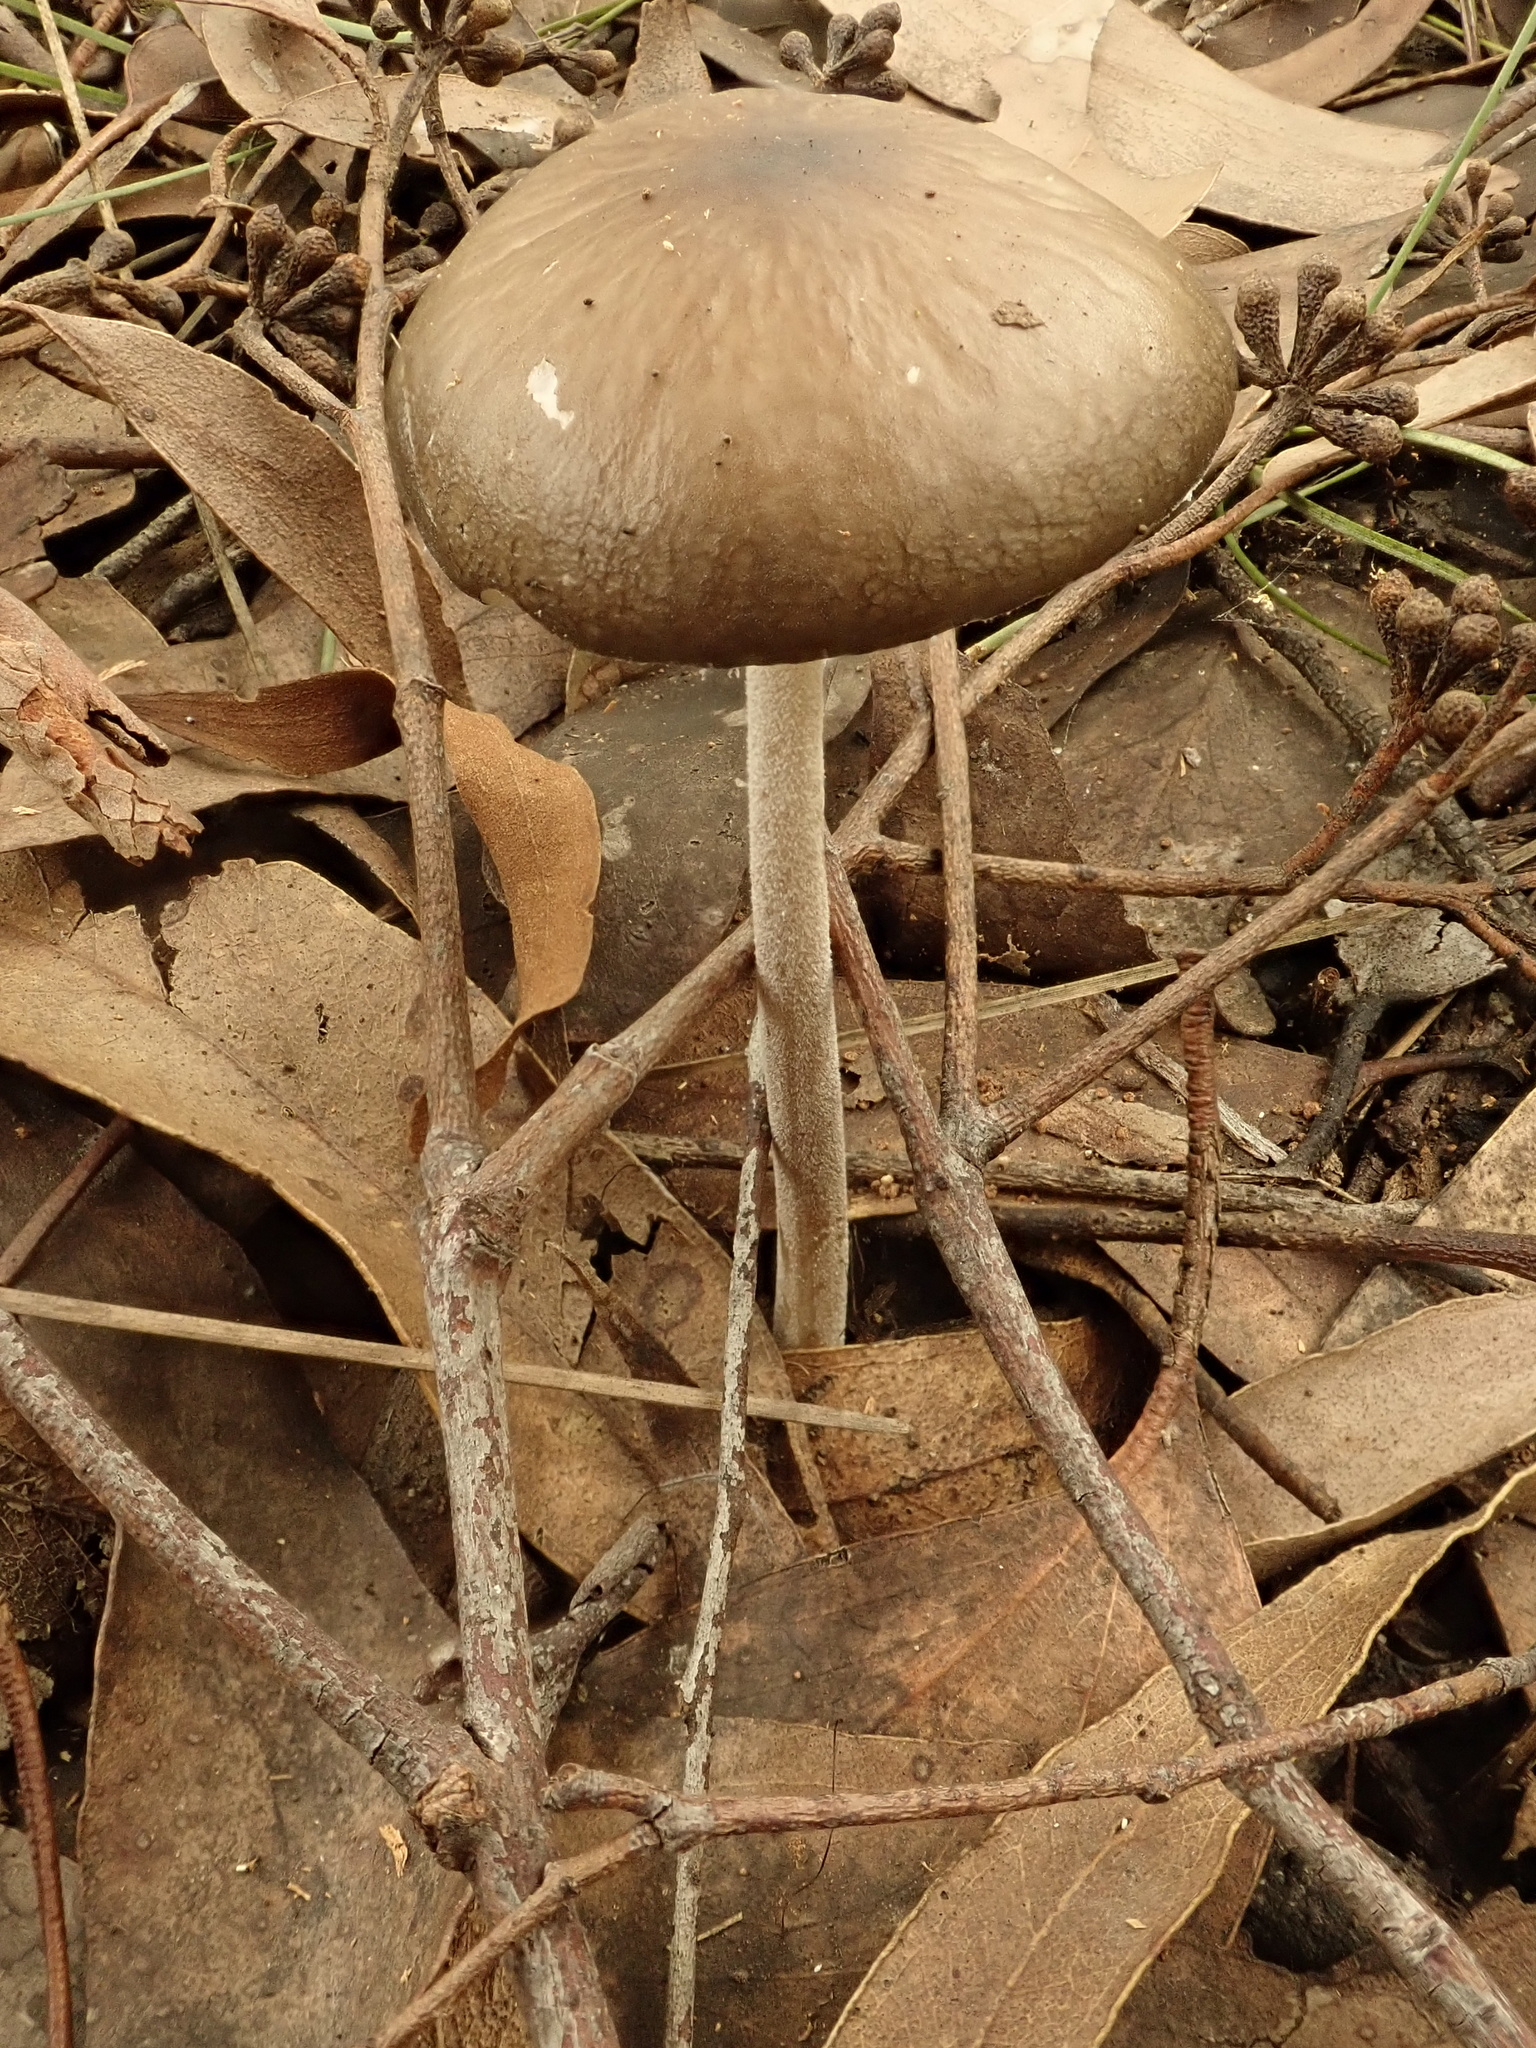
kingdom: Fungi
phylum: Basidiomycota
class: Agaricomycetes
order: Agaricales
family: Physalacriaceae
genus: Hymenopellis
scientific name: Hymenopellis gigaspora
